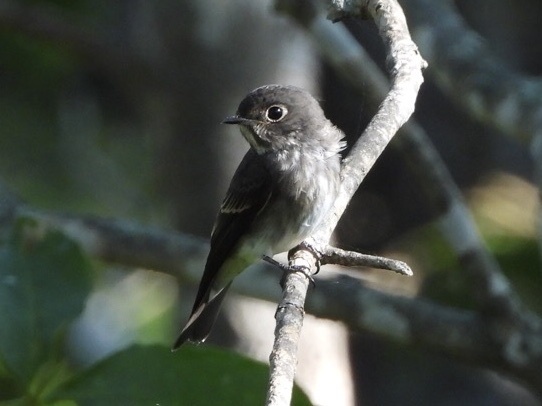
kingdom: Animalia
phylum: Chordata
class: Aves
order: Passeriformes
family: Muscicapidae
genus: Muscicapa
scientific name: Muscicapa sibirica
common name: Dark-sided flycatcher
